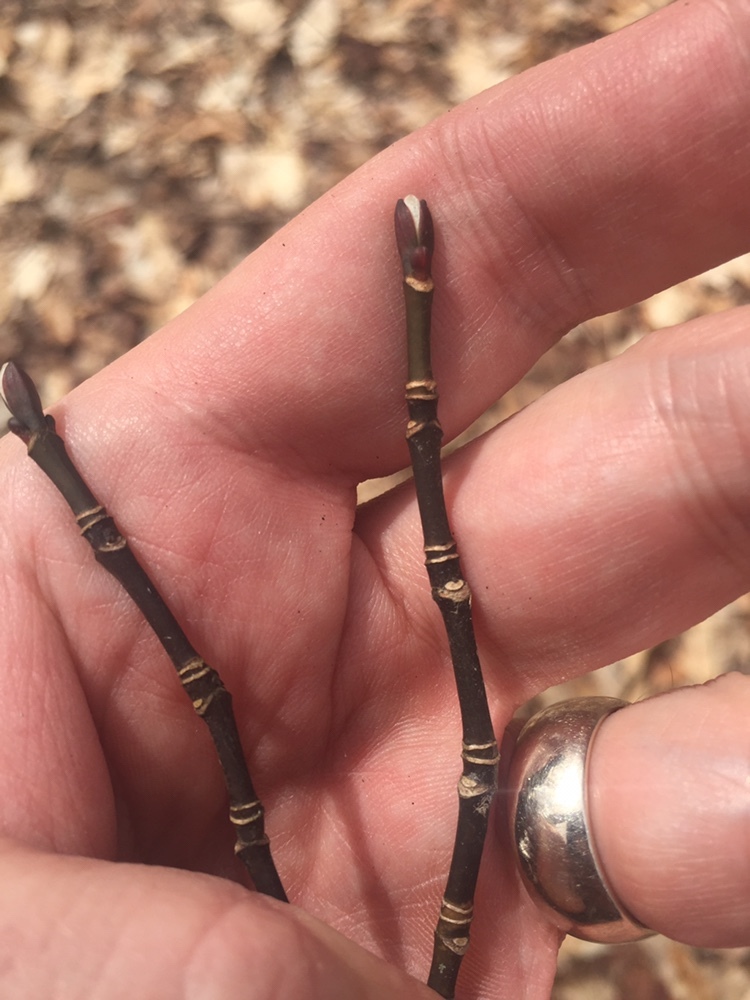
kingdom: Plantae
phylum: Tracheophyta
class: Magnoliopsida
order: Sapindales
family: Sapindaceae
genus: Acer
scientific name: Acer pensylvanicum
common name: Moosewood
